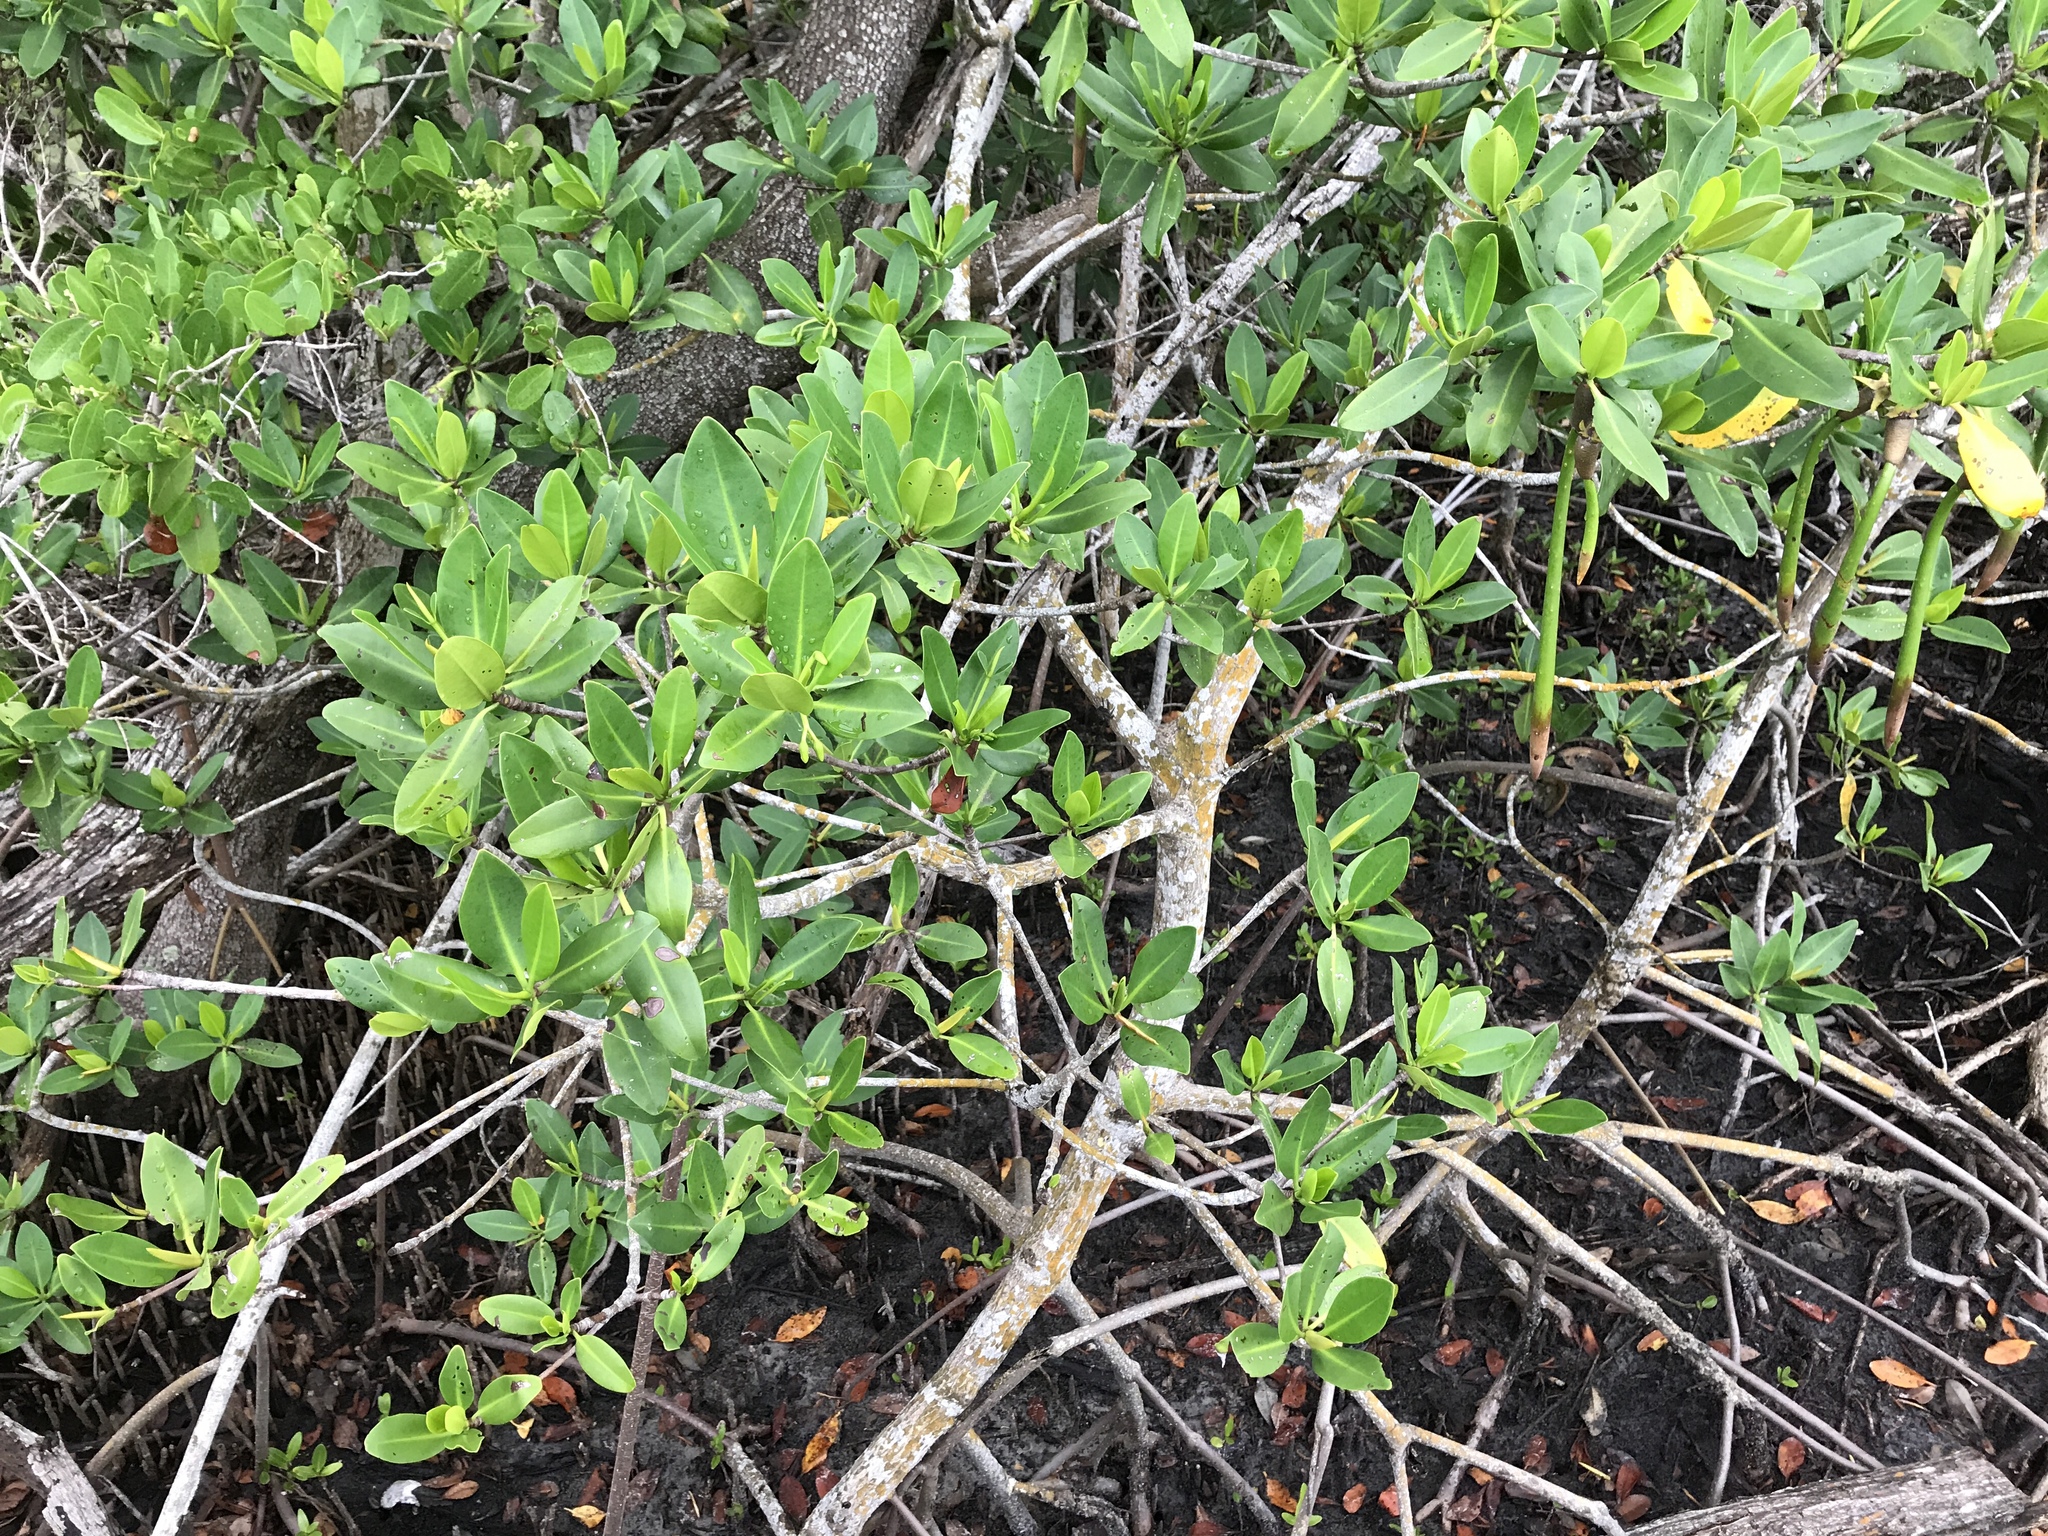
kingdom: Plantae
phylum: Tracheophyta
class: Magnoliopsida
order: Malpighiales
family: Rhizophoraceae
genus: Rhizophora
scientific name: Rhizophora mangle
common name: Red mangrove
